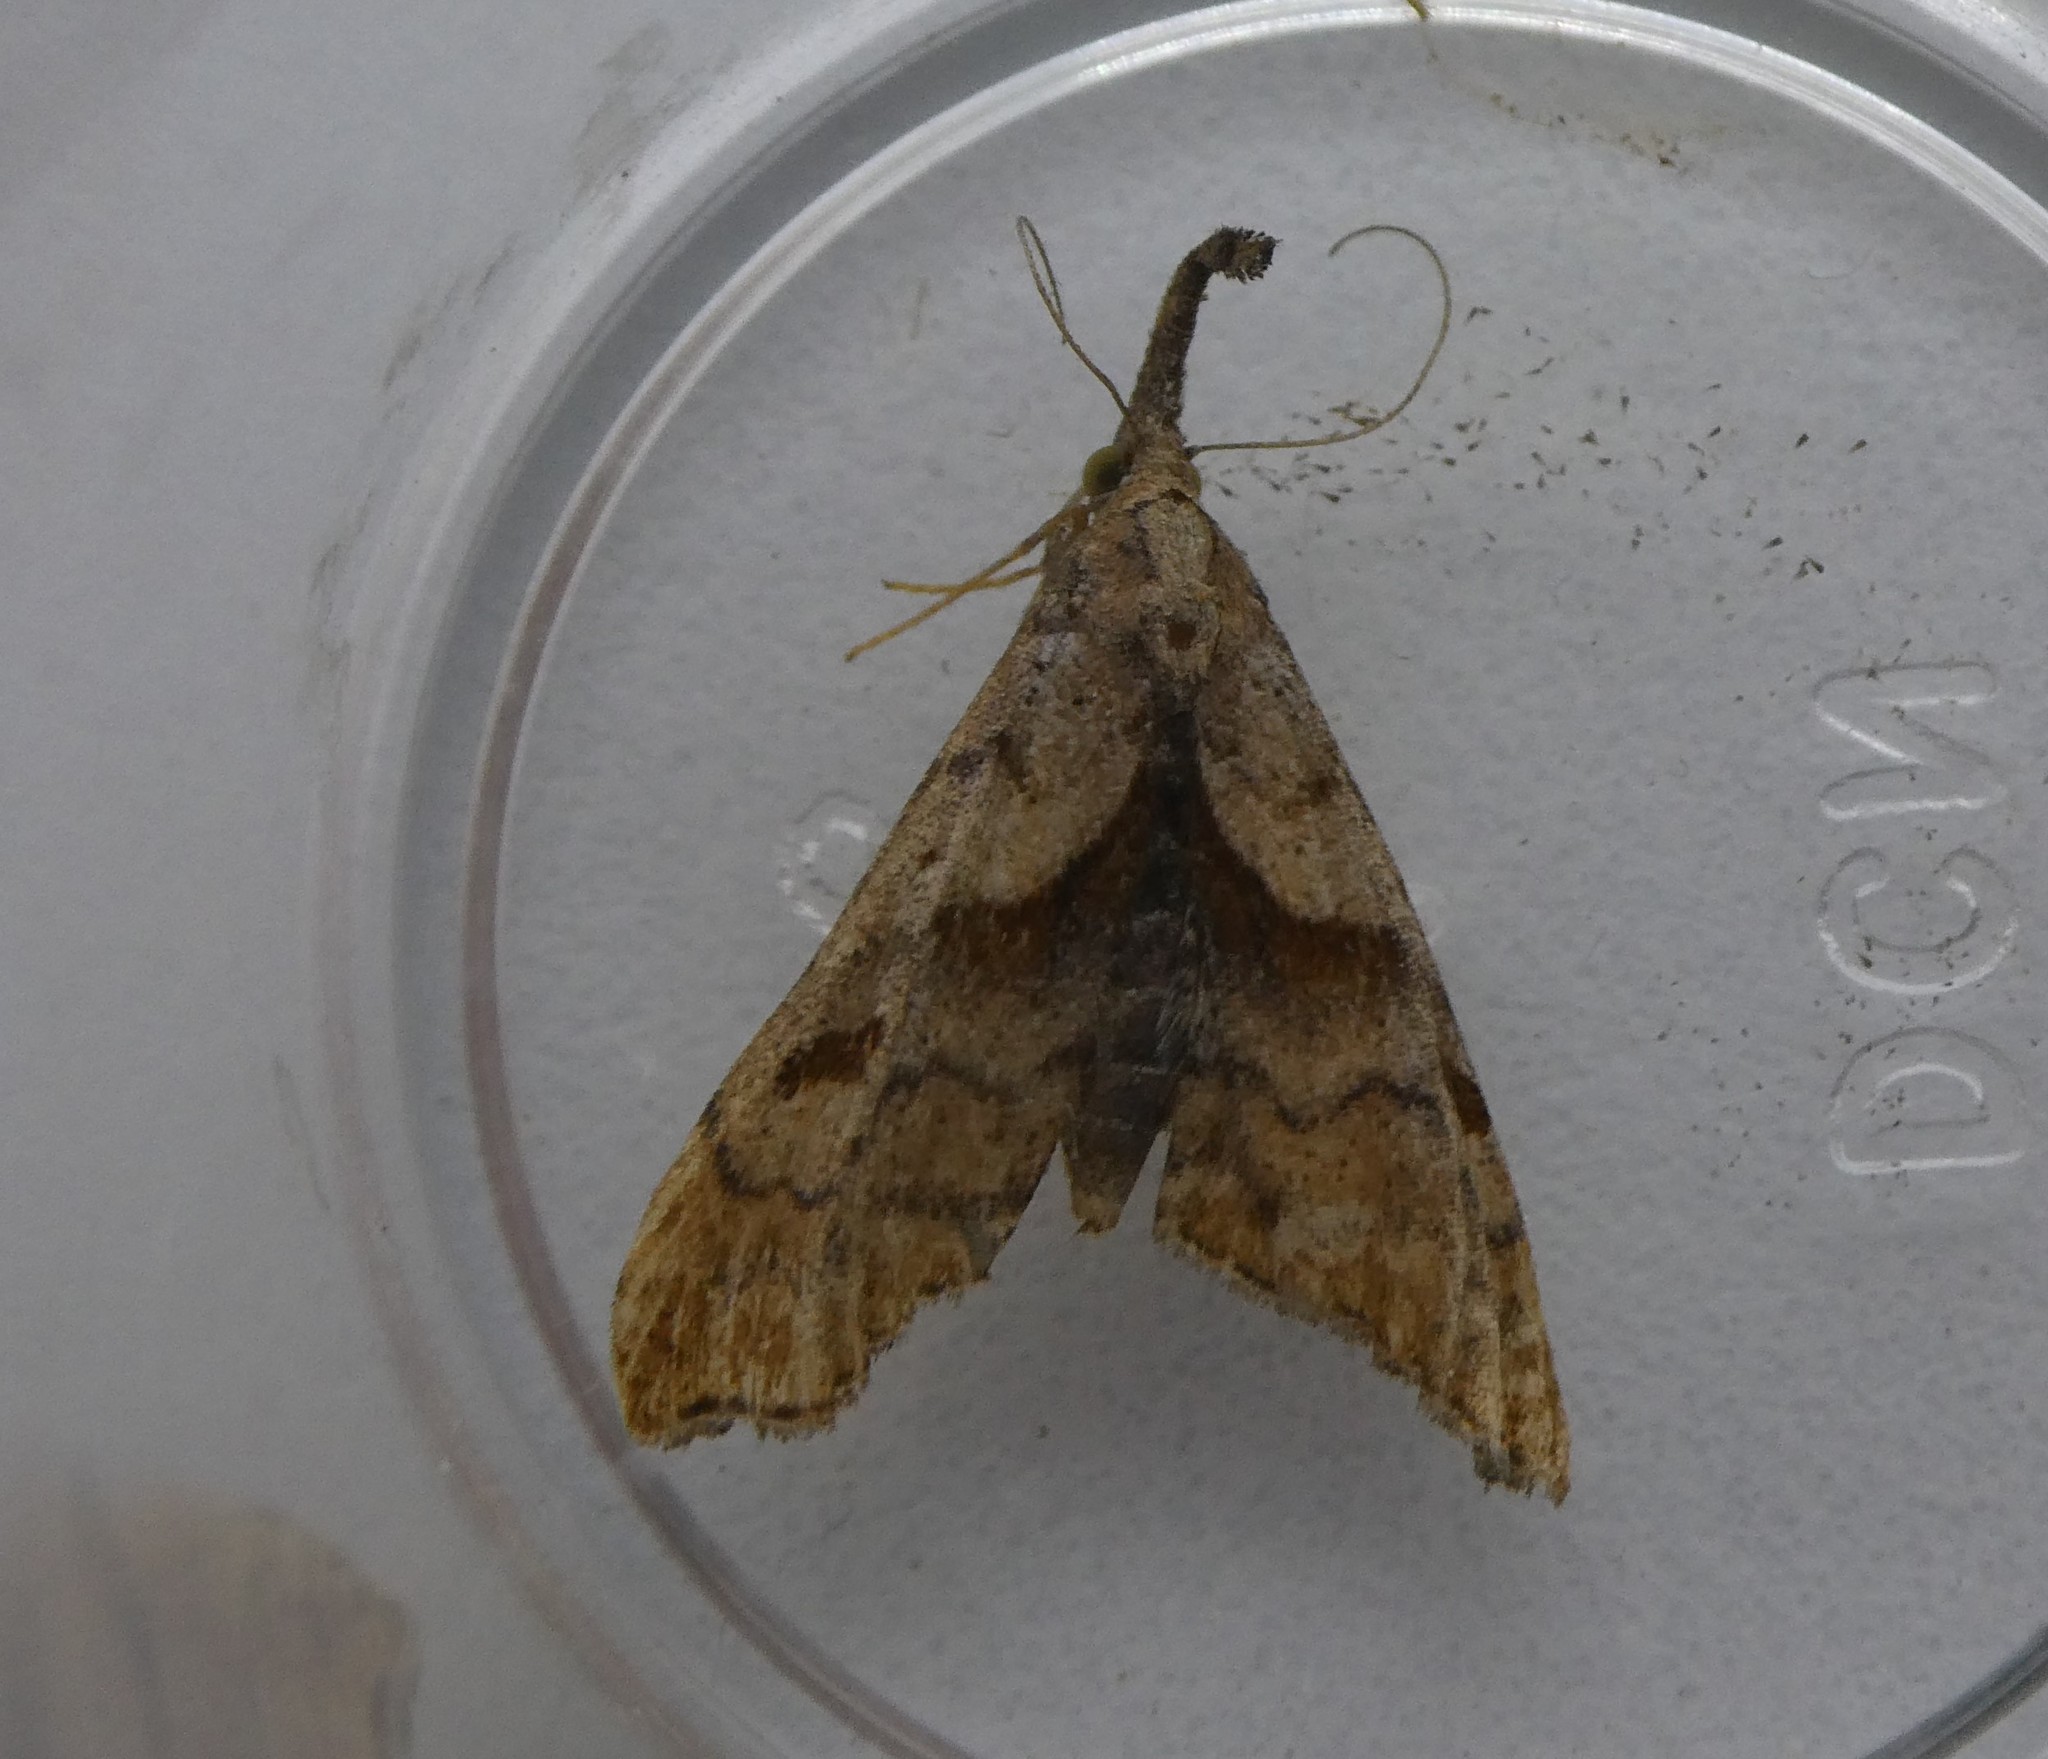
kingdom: Animalia
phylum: Arthropoda
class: Insecta
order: Lepidoptera
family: Erebidae
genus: Palthis
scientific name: Palthis angulalis
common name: Dark-spotted palthis moth
